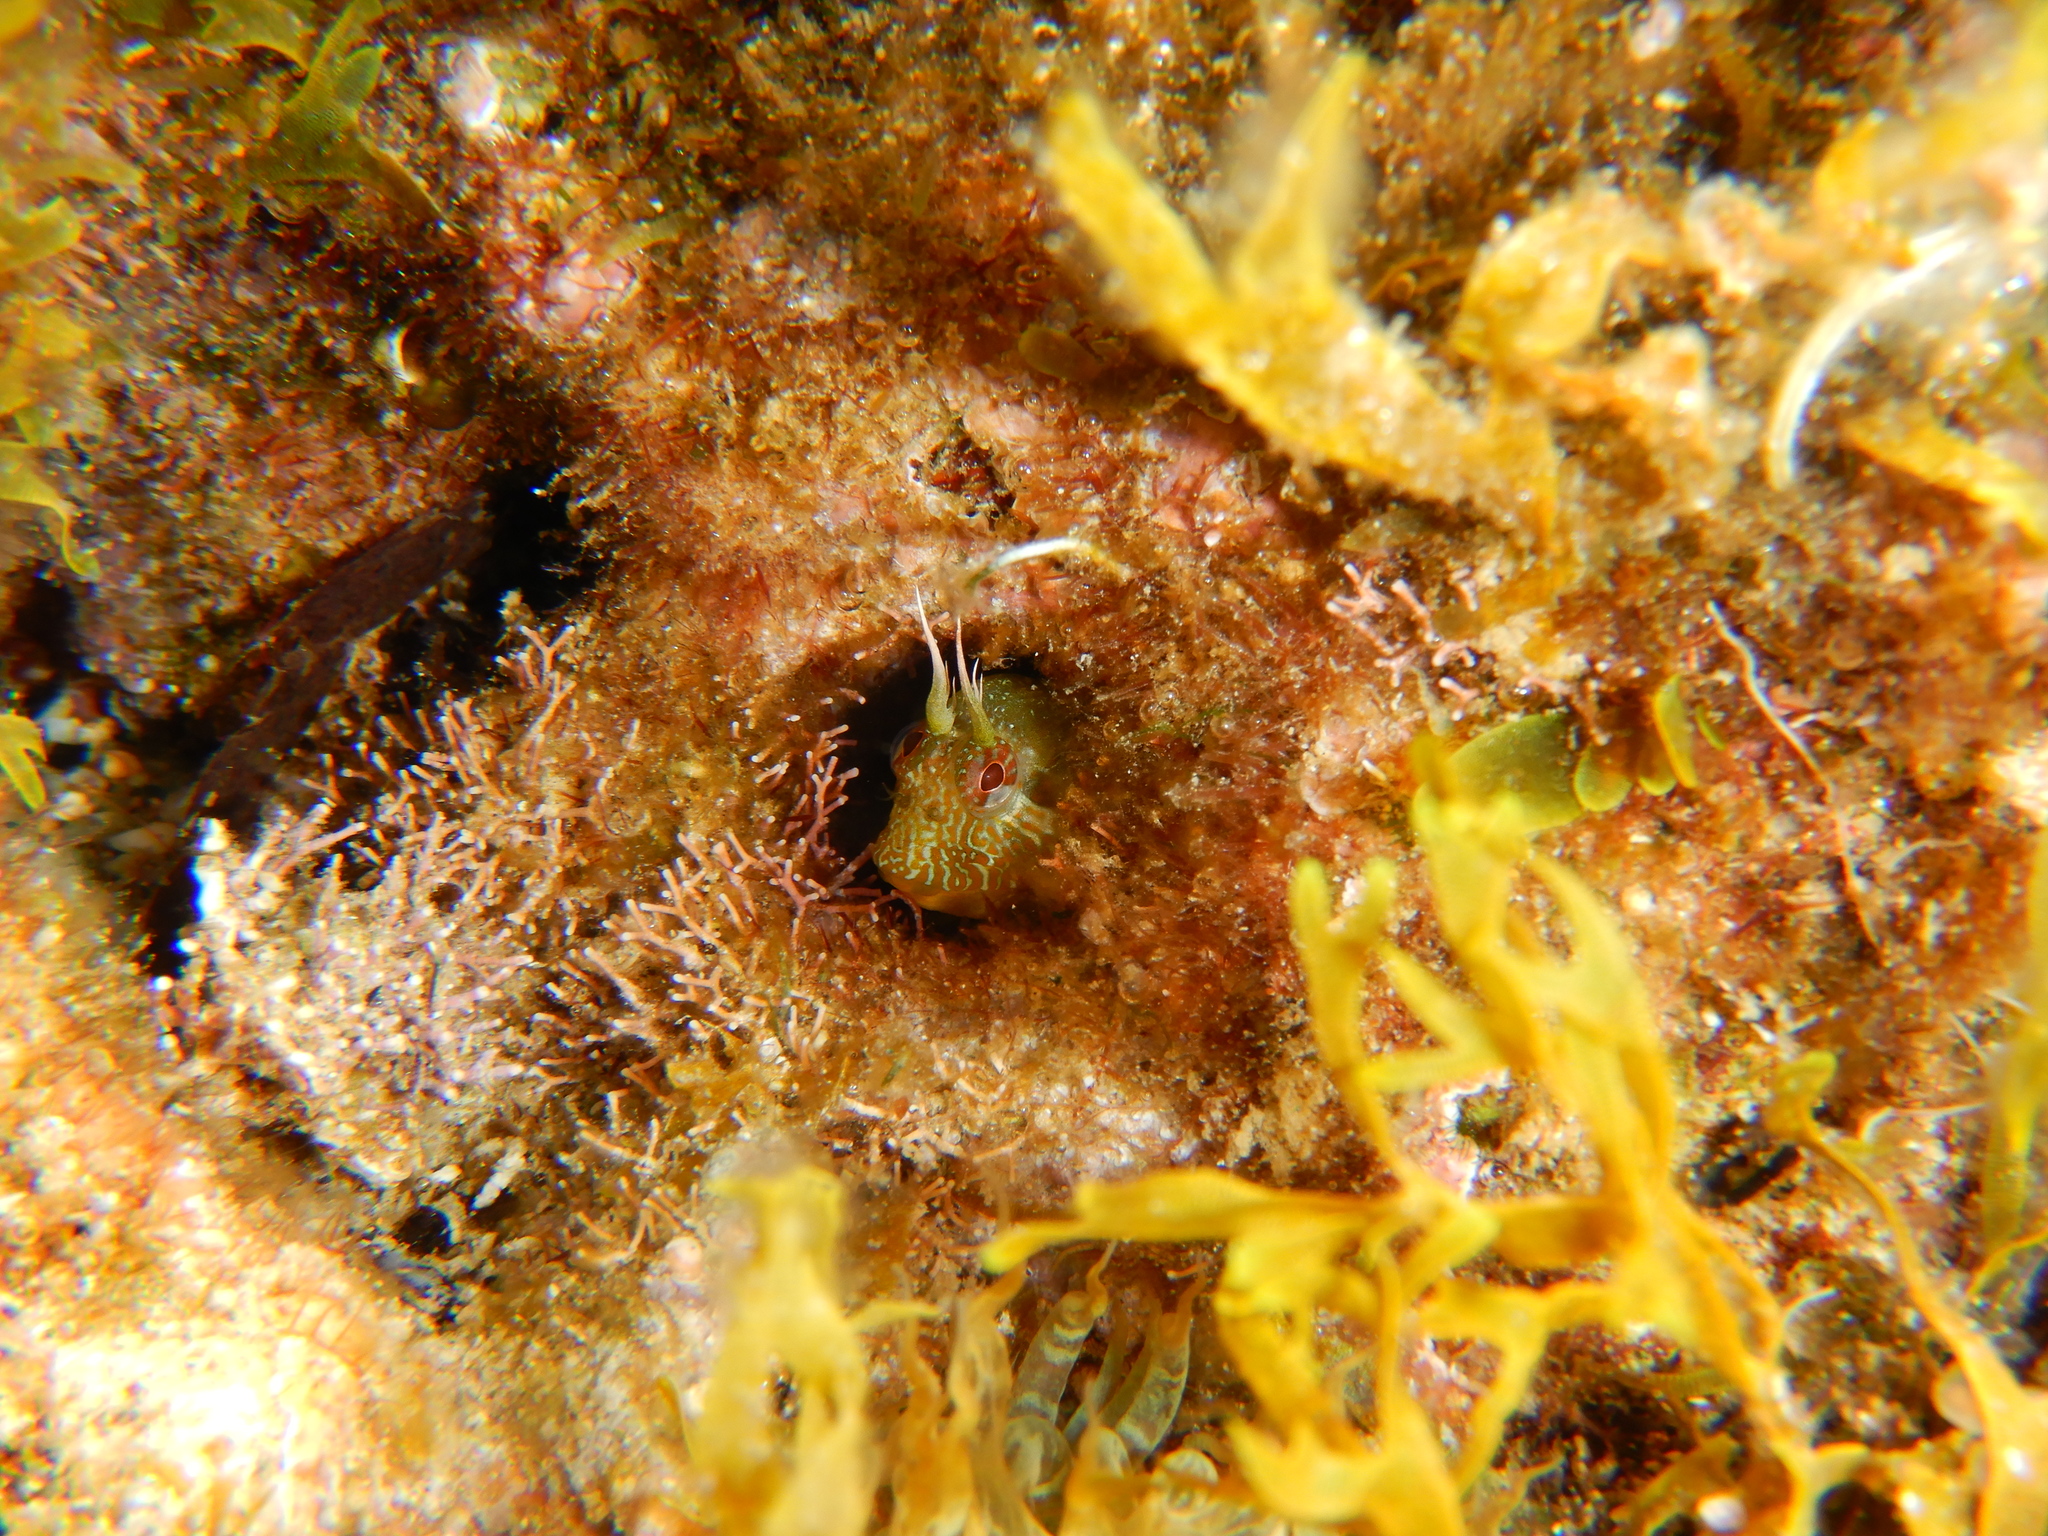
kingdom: Animalia
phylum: Chordata
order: Perciformes
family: Blenniidae
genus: Parablennius
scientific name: Parablennius incognitus
